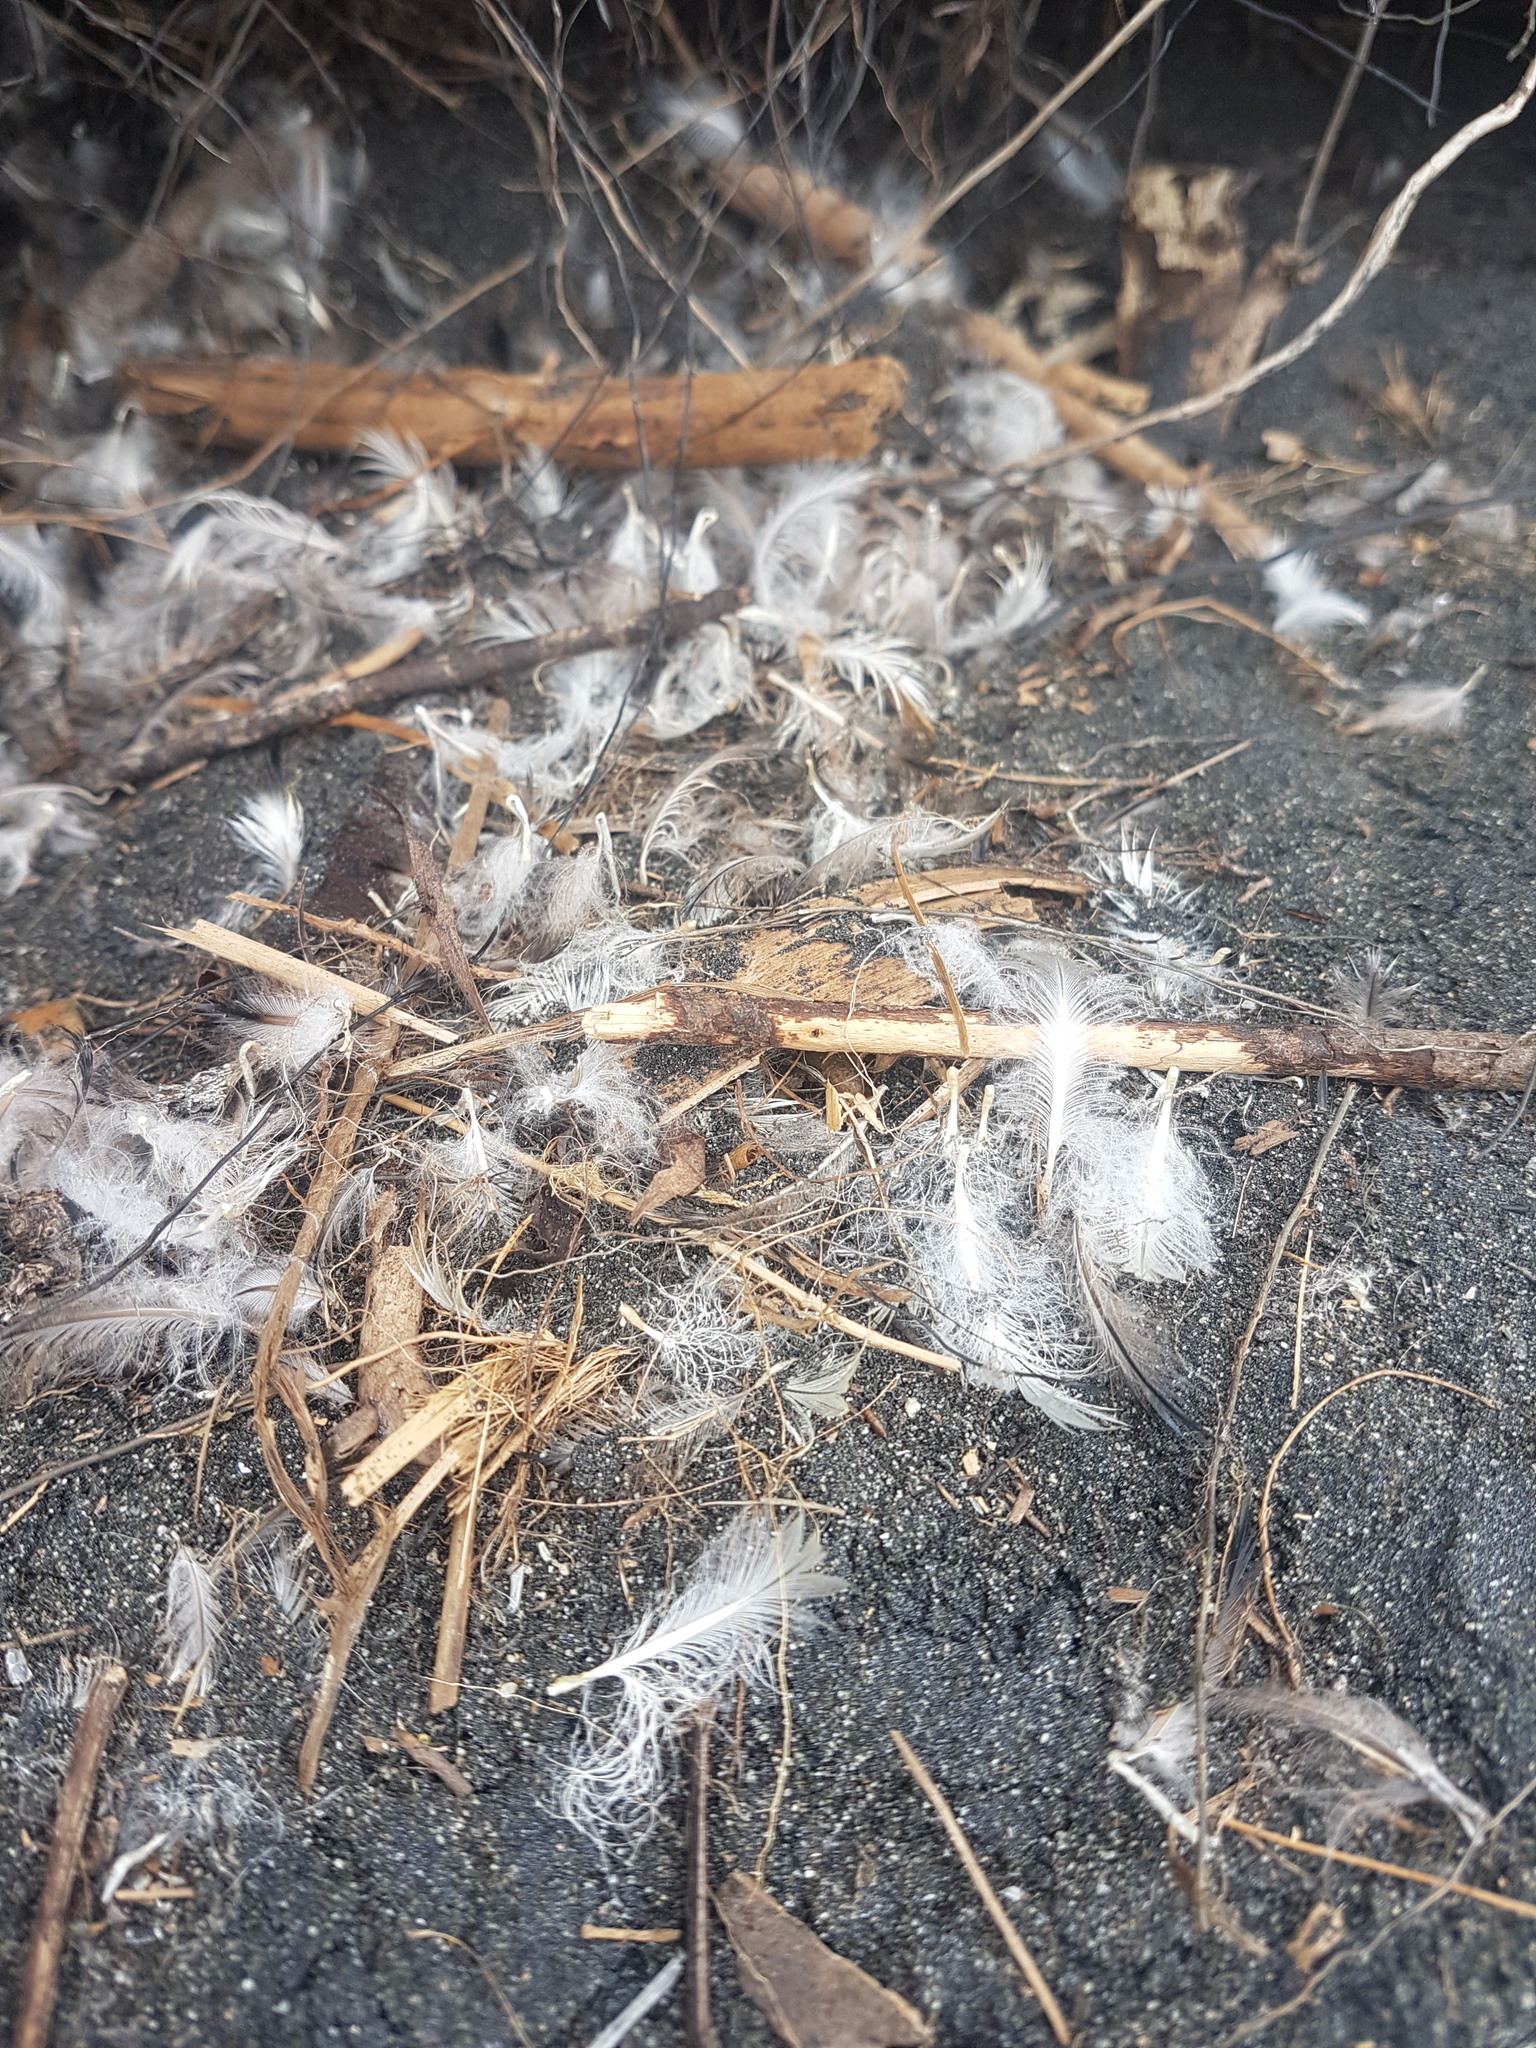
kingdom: Animalia
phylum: Chordata
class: Aves
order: Sphenisciformes
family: Spheniscidae
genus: Eudyptula
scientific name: Eudyptula minor
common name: Little penguin
